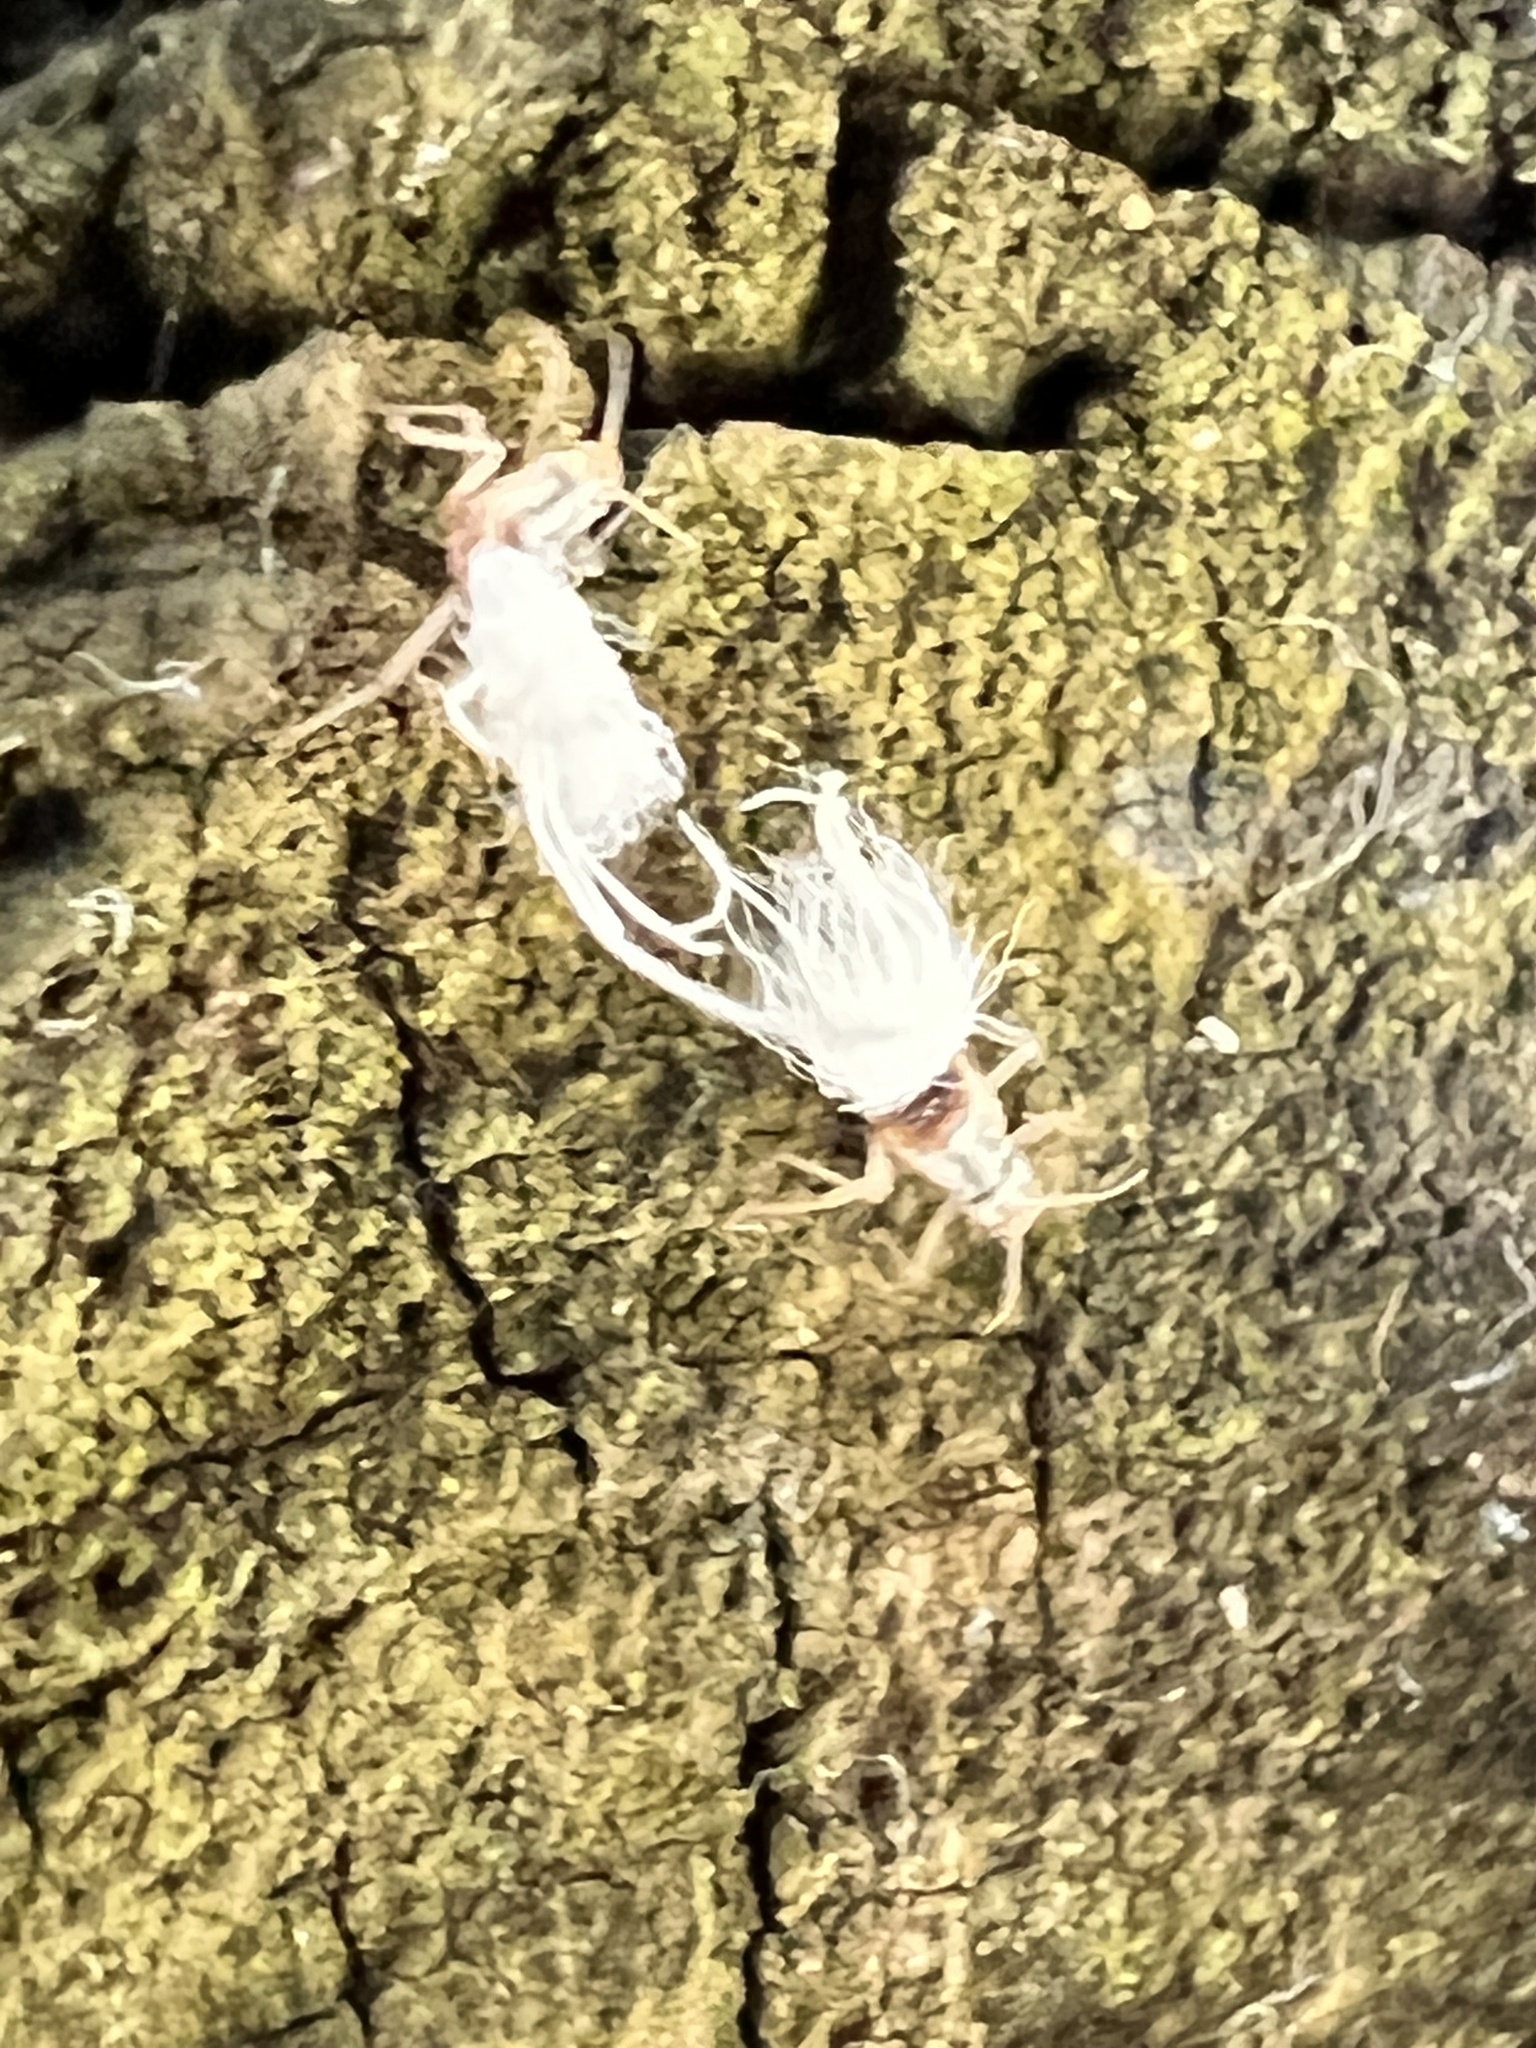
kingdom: Animalia
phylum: Arthropoda
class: Insecta
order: Hemiptera
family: Aphididae
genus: Grylloprociphilus
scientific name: Grylloprociphilus imbricator
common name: Beech blight aphid
